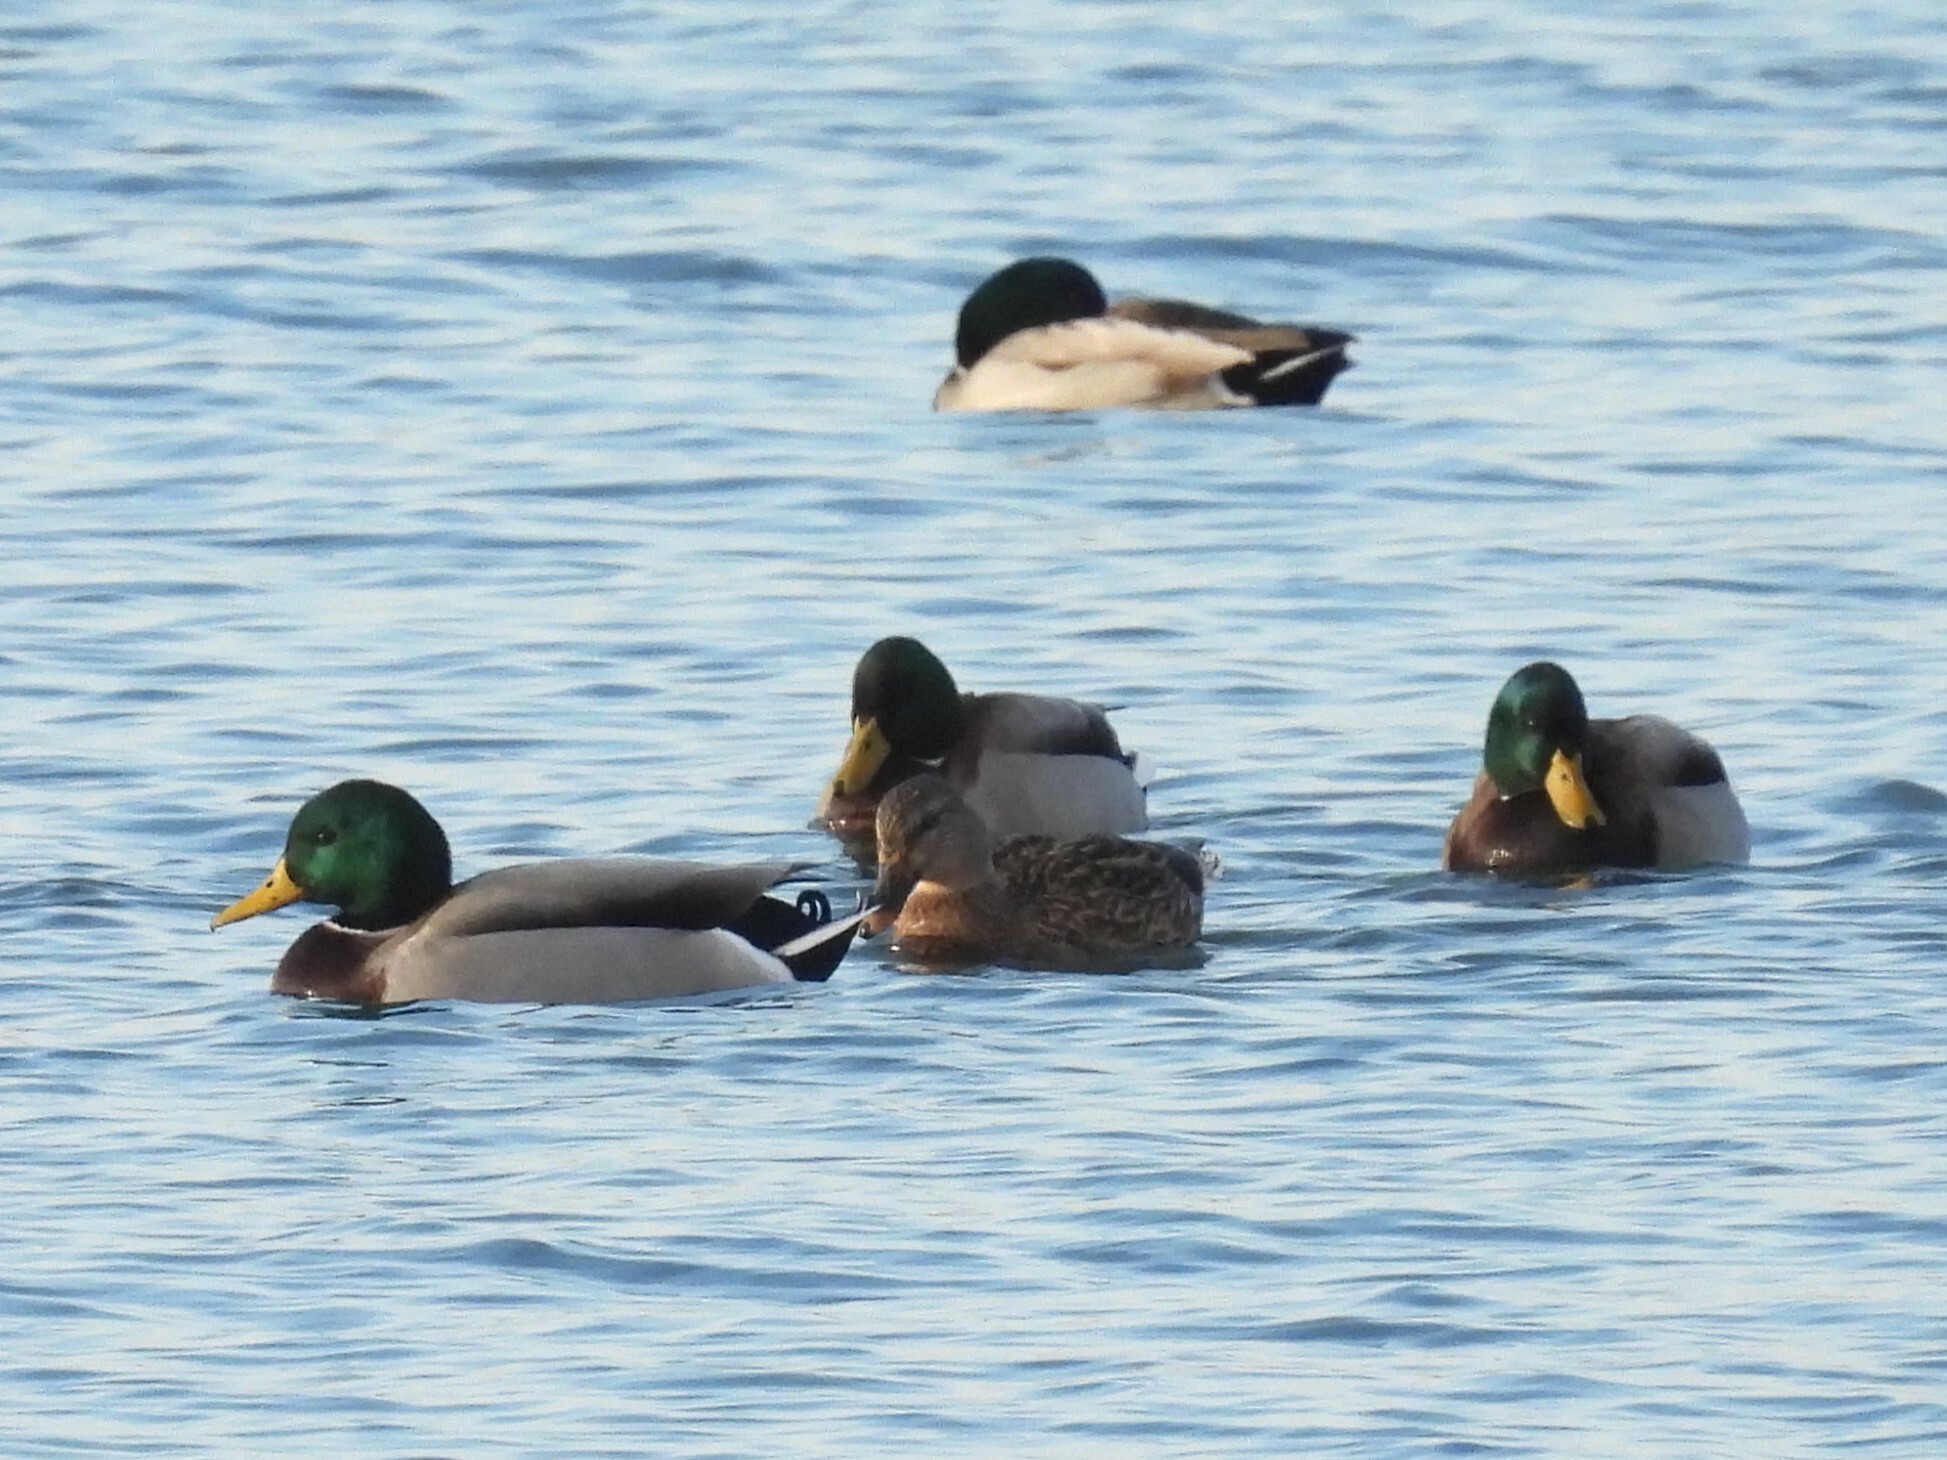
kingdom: Animalia
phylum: Chordata
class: Aves
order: Anseriformes
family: Anatidae
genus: Anas
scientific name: Anas platyrhynchos
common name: Mallard
